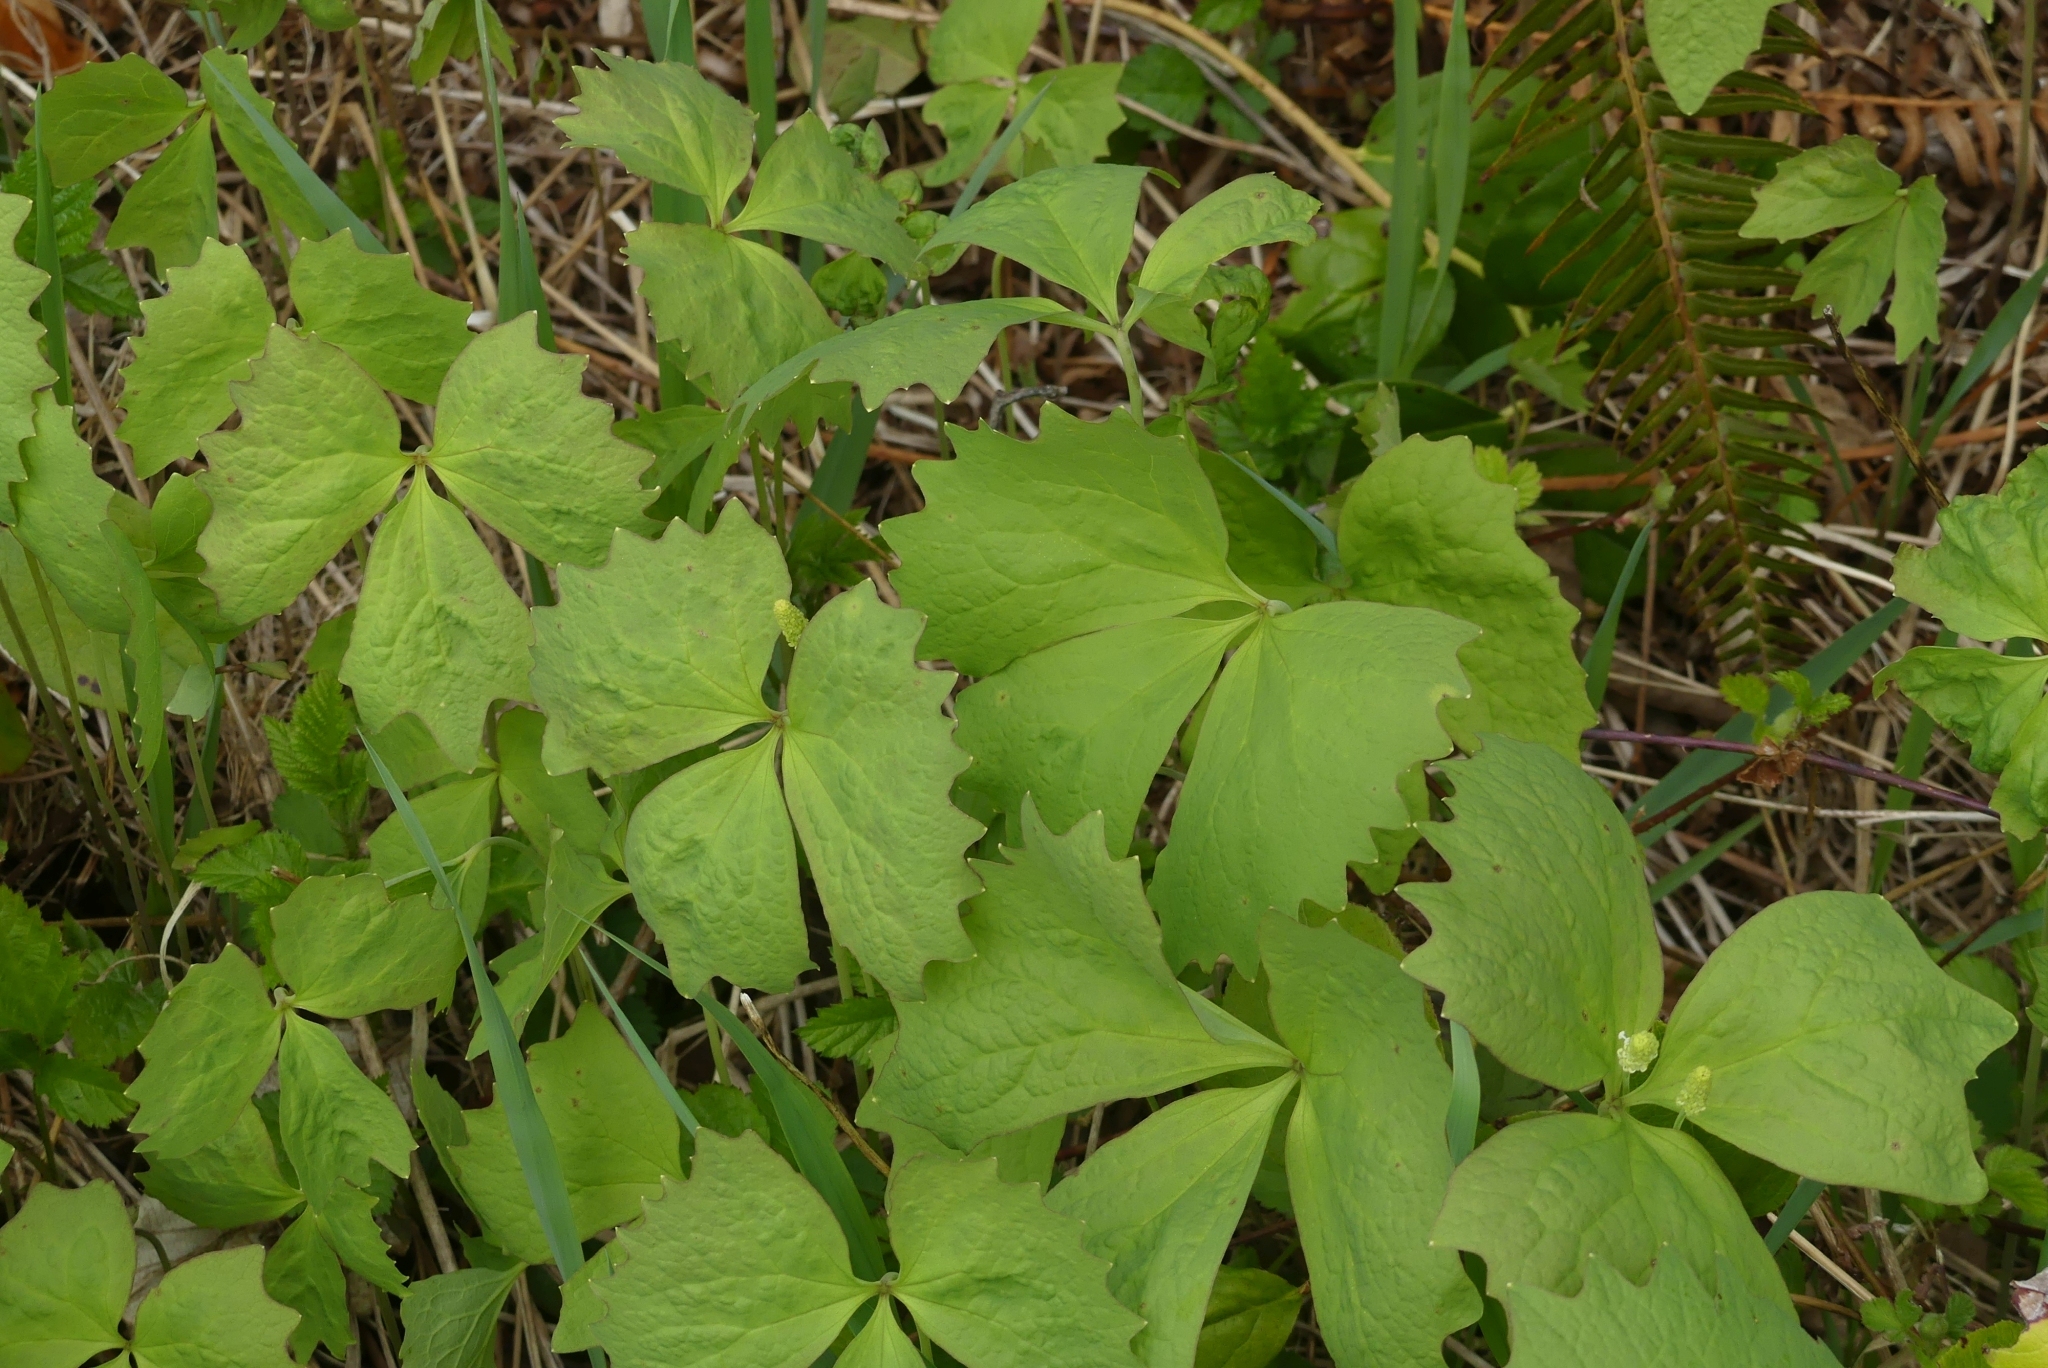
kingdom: Plantae
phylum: Tracheophyta
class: Magnoliopsida
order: Ranunculales
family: Berberidaceae
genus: Achlys
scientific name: Achlys triphylla
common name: Vanilla-leaf
